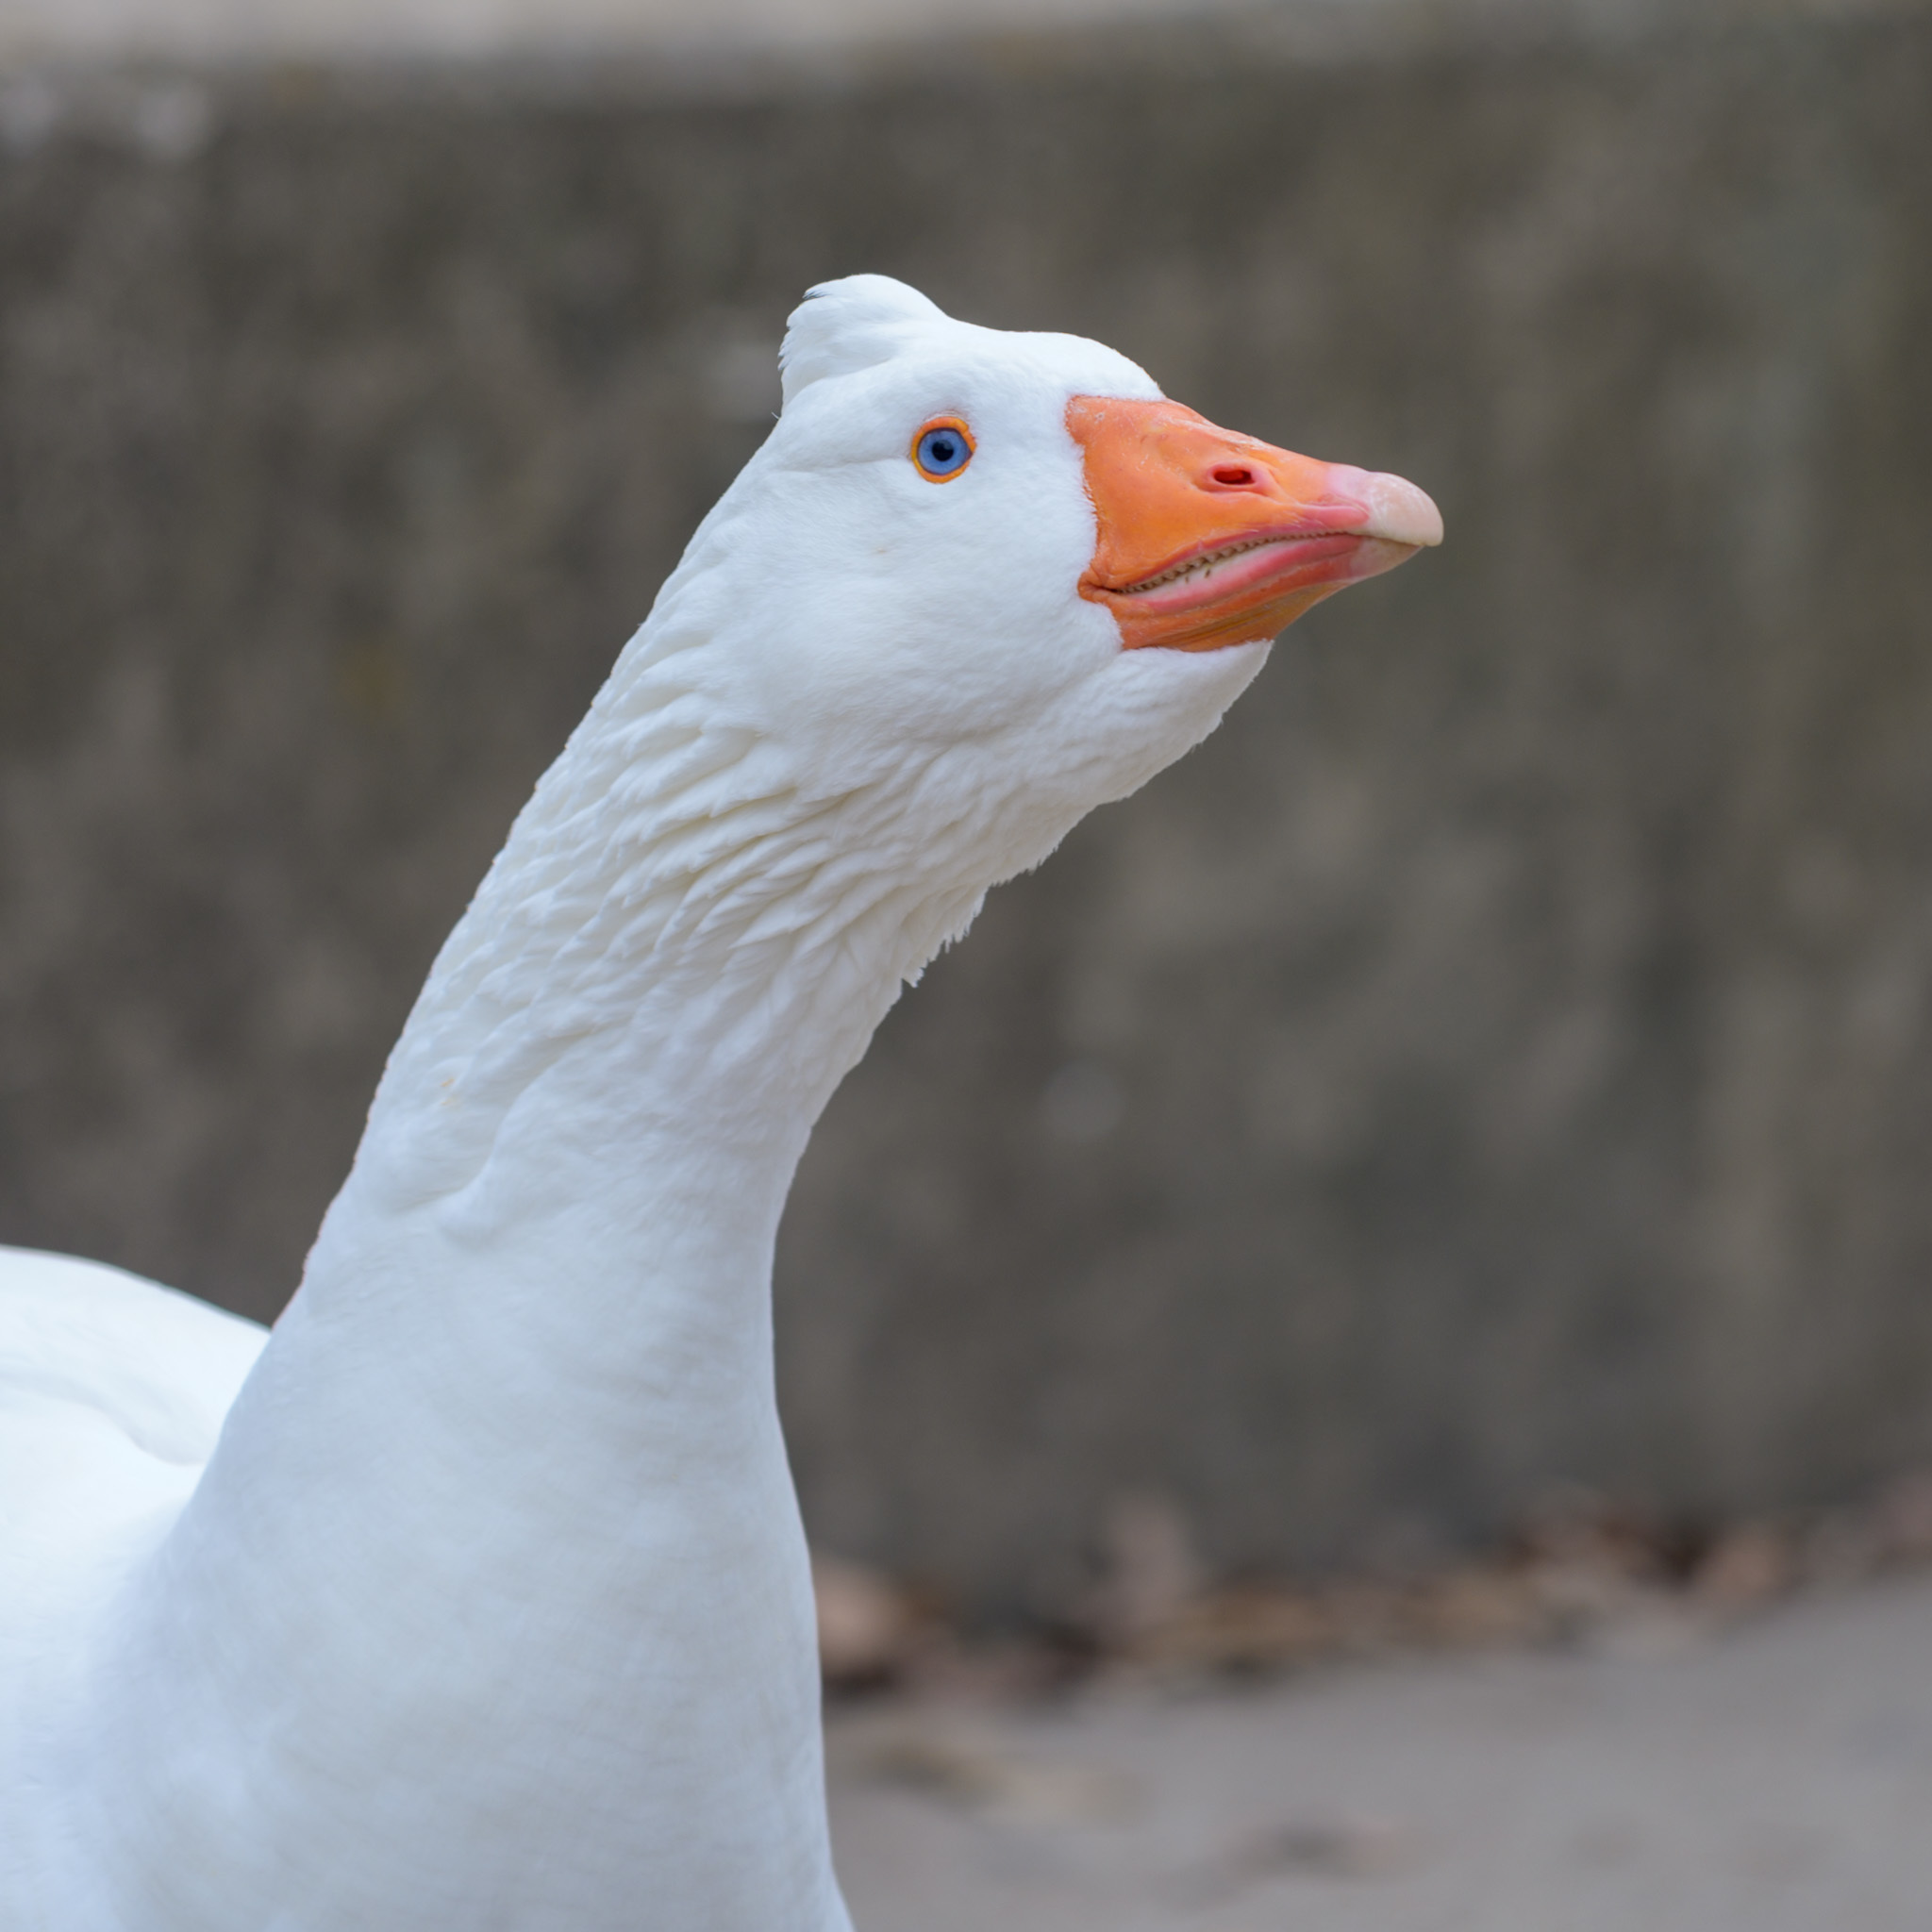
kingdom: Animalia
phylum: Chordata
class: Aves
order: Anseriformes
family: Anatidae
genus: Anser
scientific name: Anser anser
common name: Greylag goose
